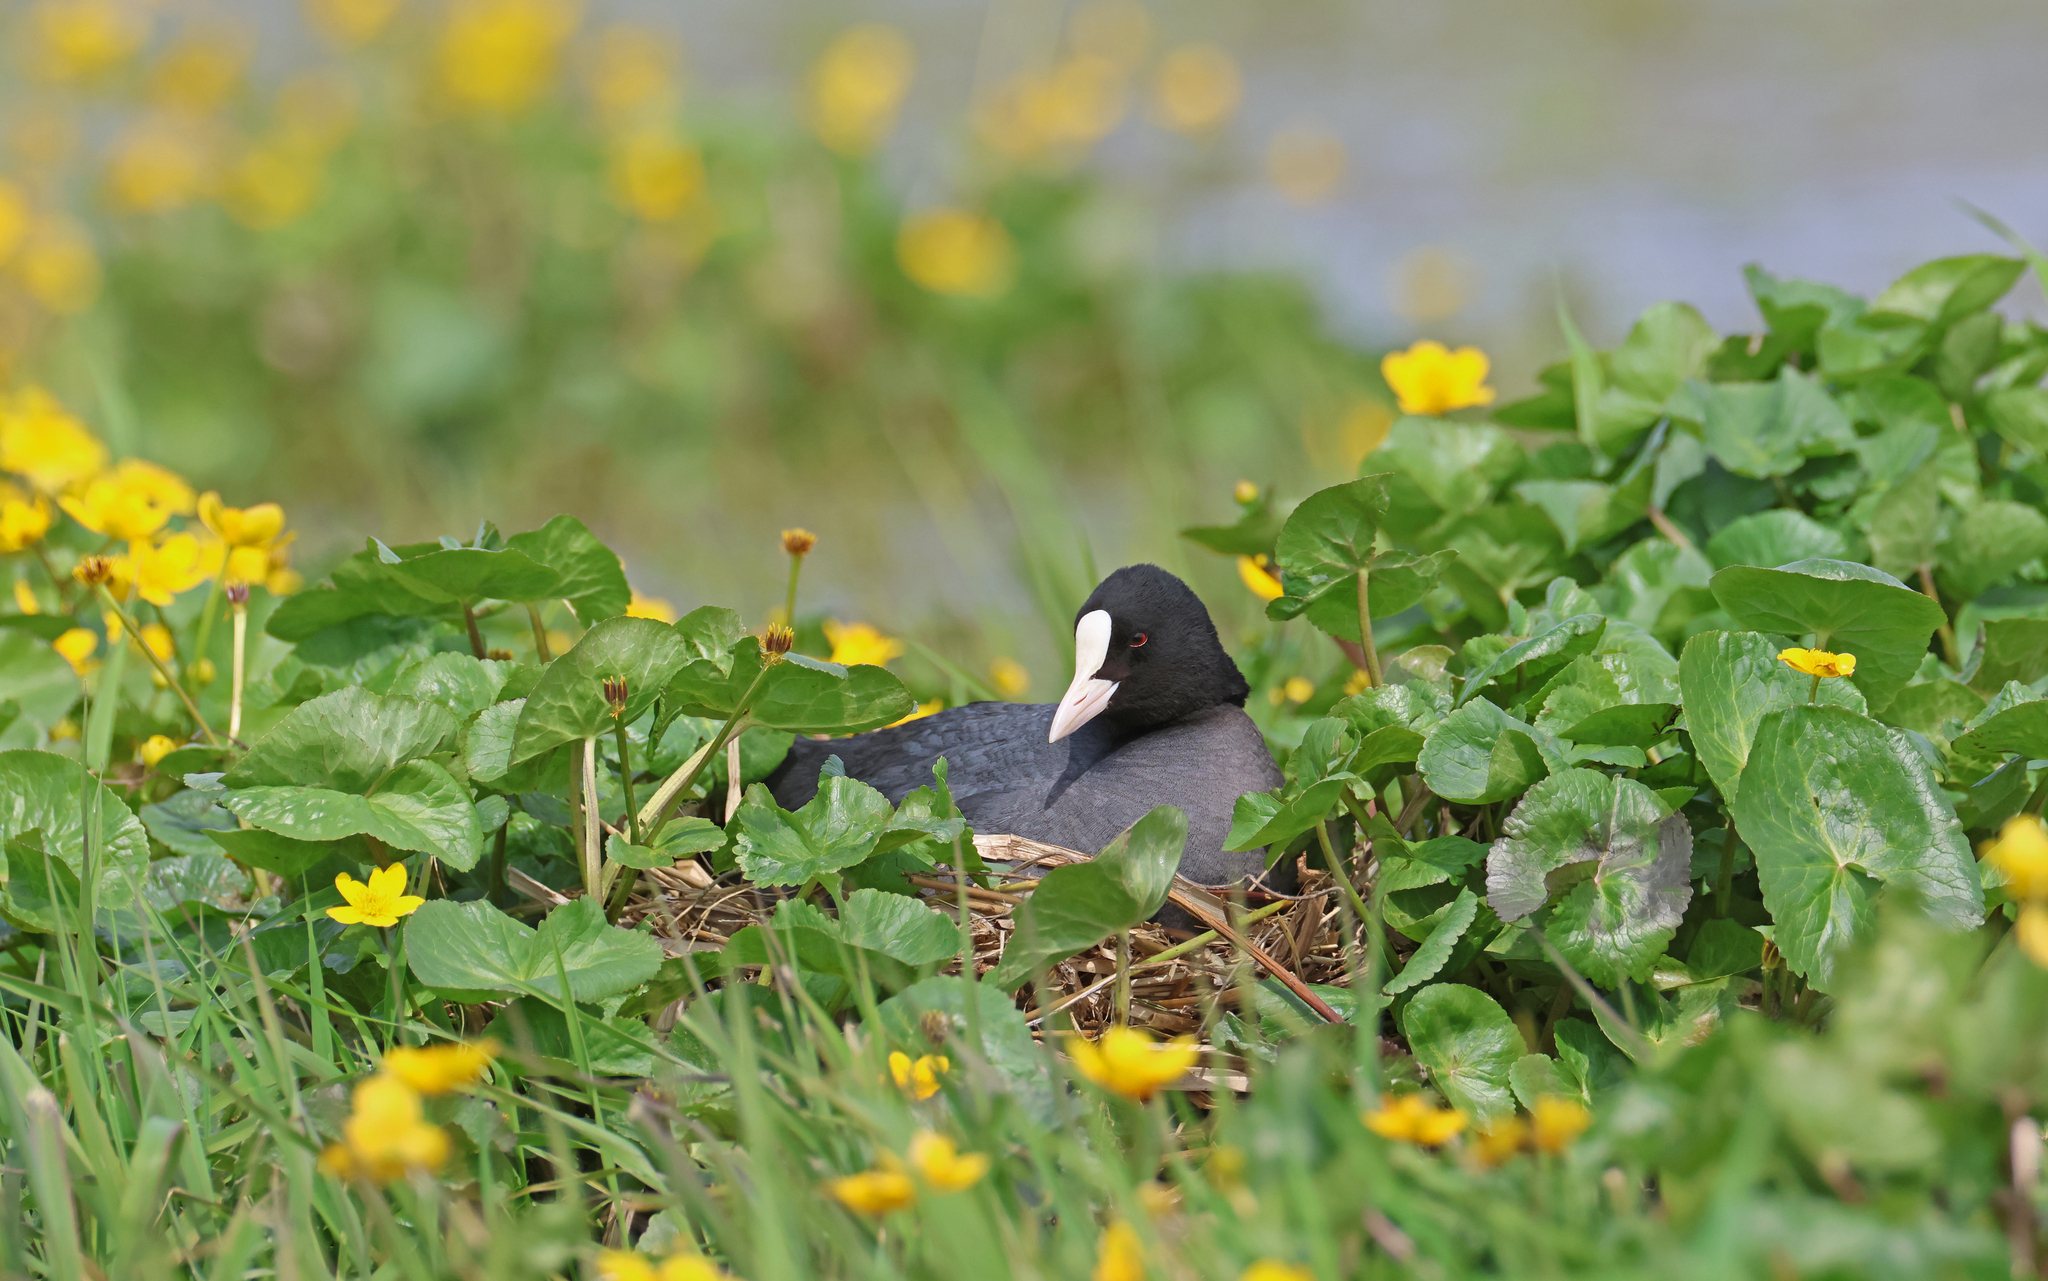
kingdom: Animalia
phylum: Chordata
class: Aves
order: Gruiformes
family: Rallidae
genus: Fulica
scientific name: Fulica atra
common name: Eurasian coot
